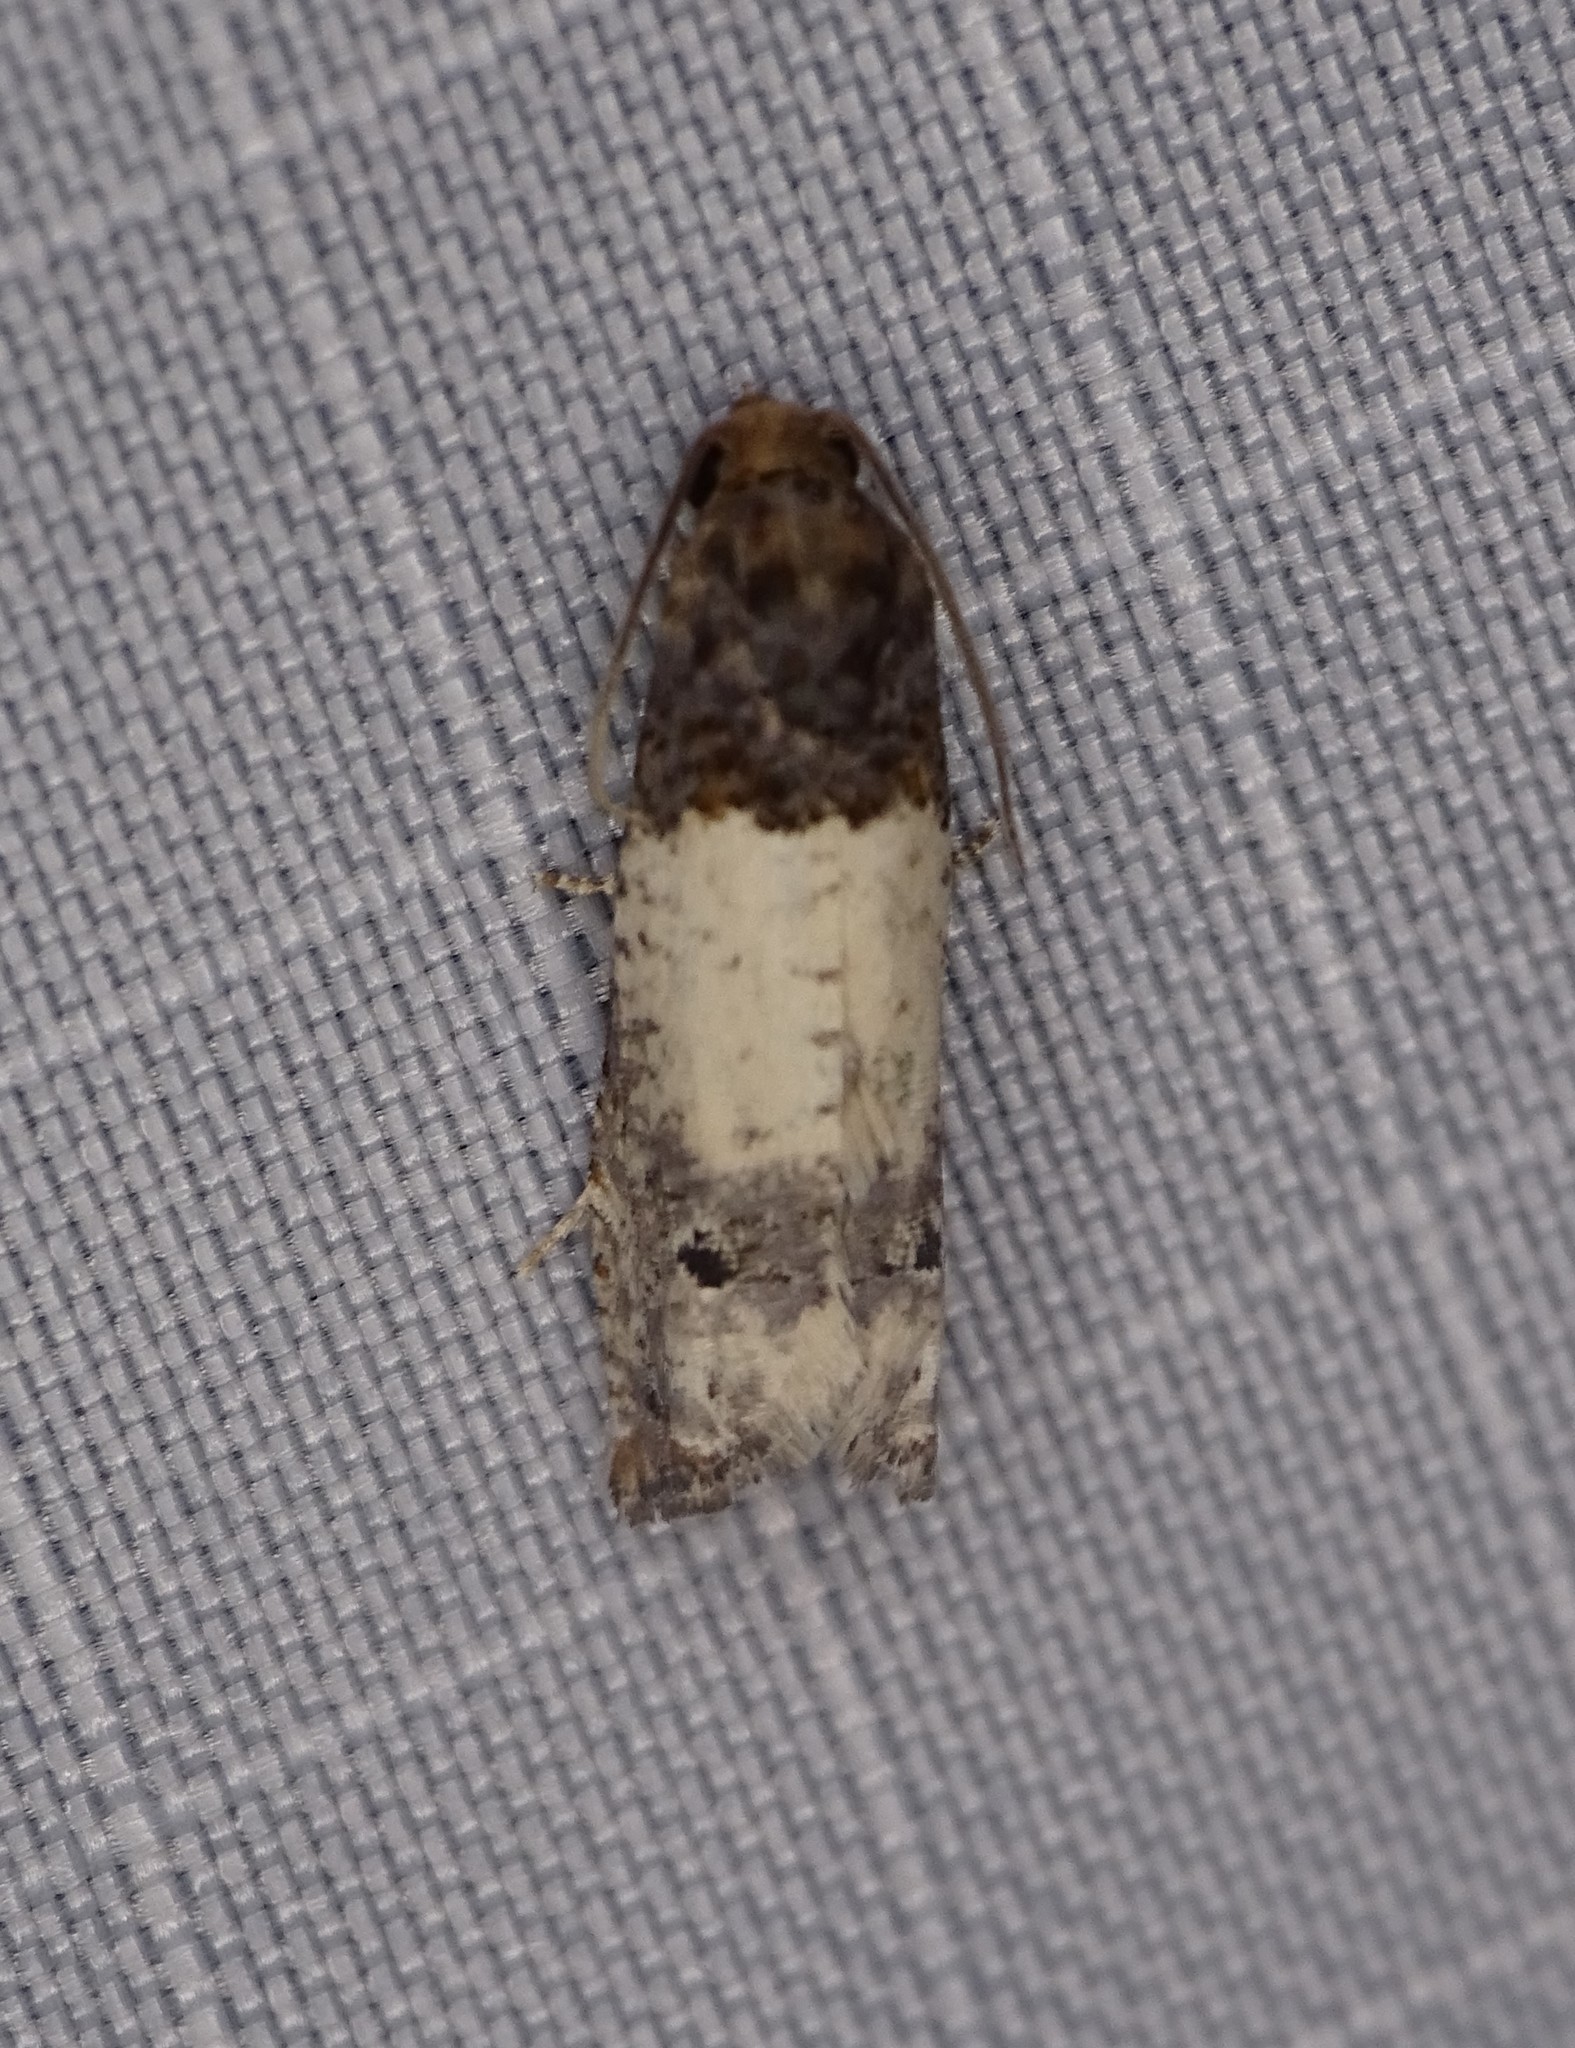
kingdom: Animalia
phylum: Arthropoda
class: Insecta
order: Lepidoptera
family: Tortricidae
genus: Epiblema
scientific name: Epiblema scudderiana
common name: Goldenrod gall moth
